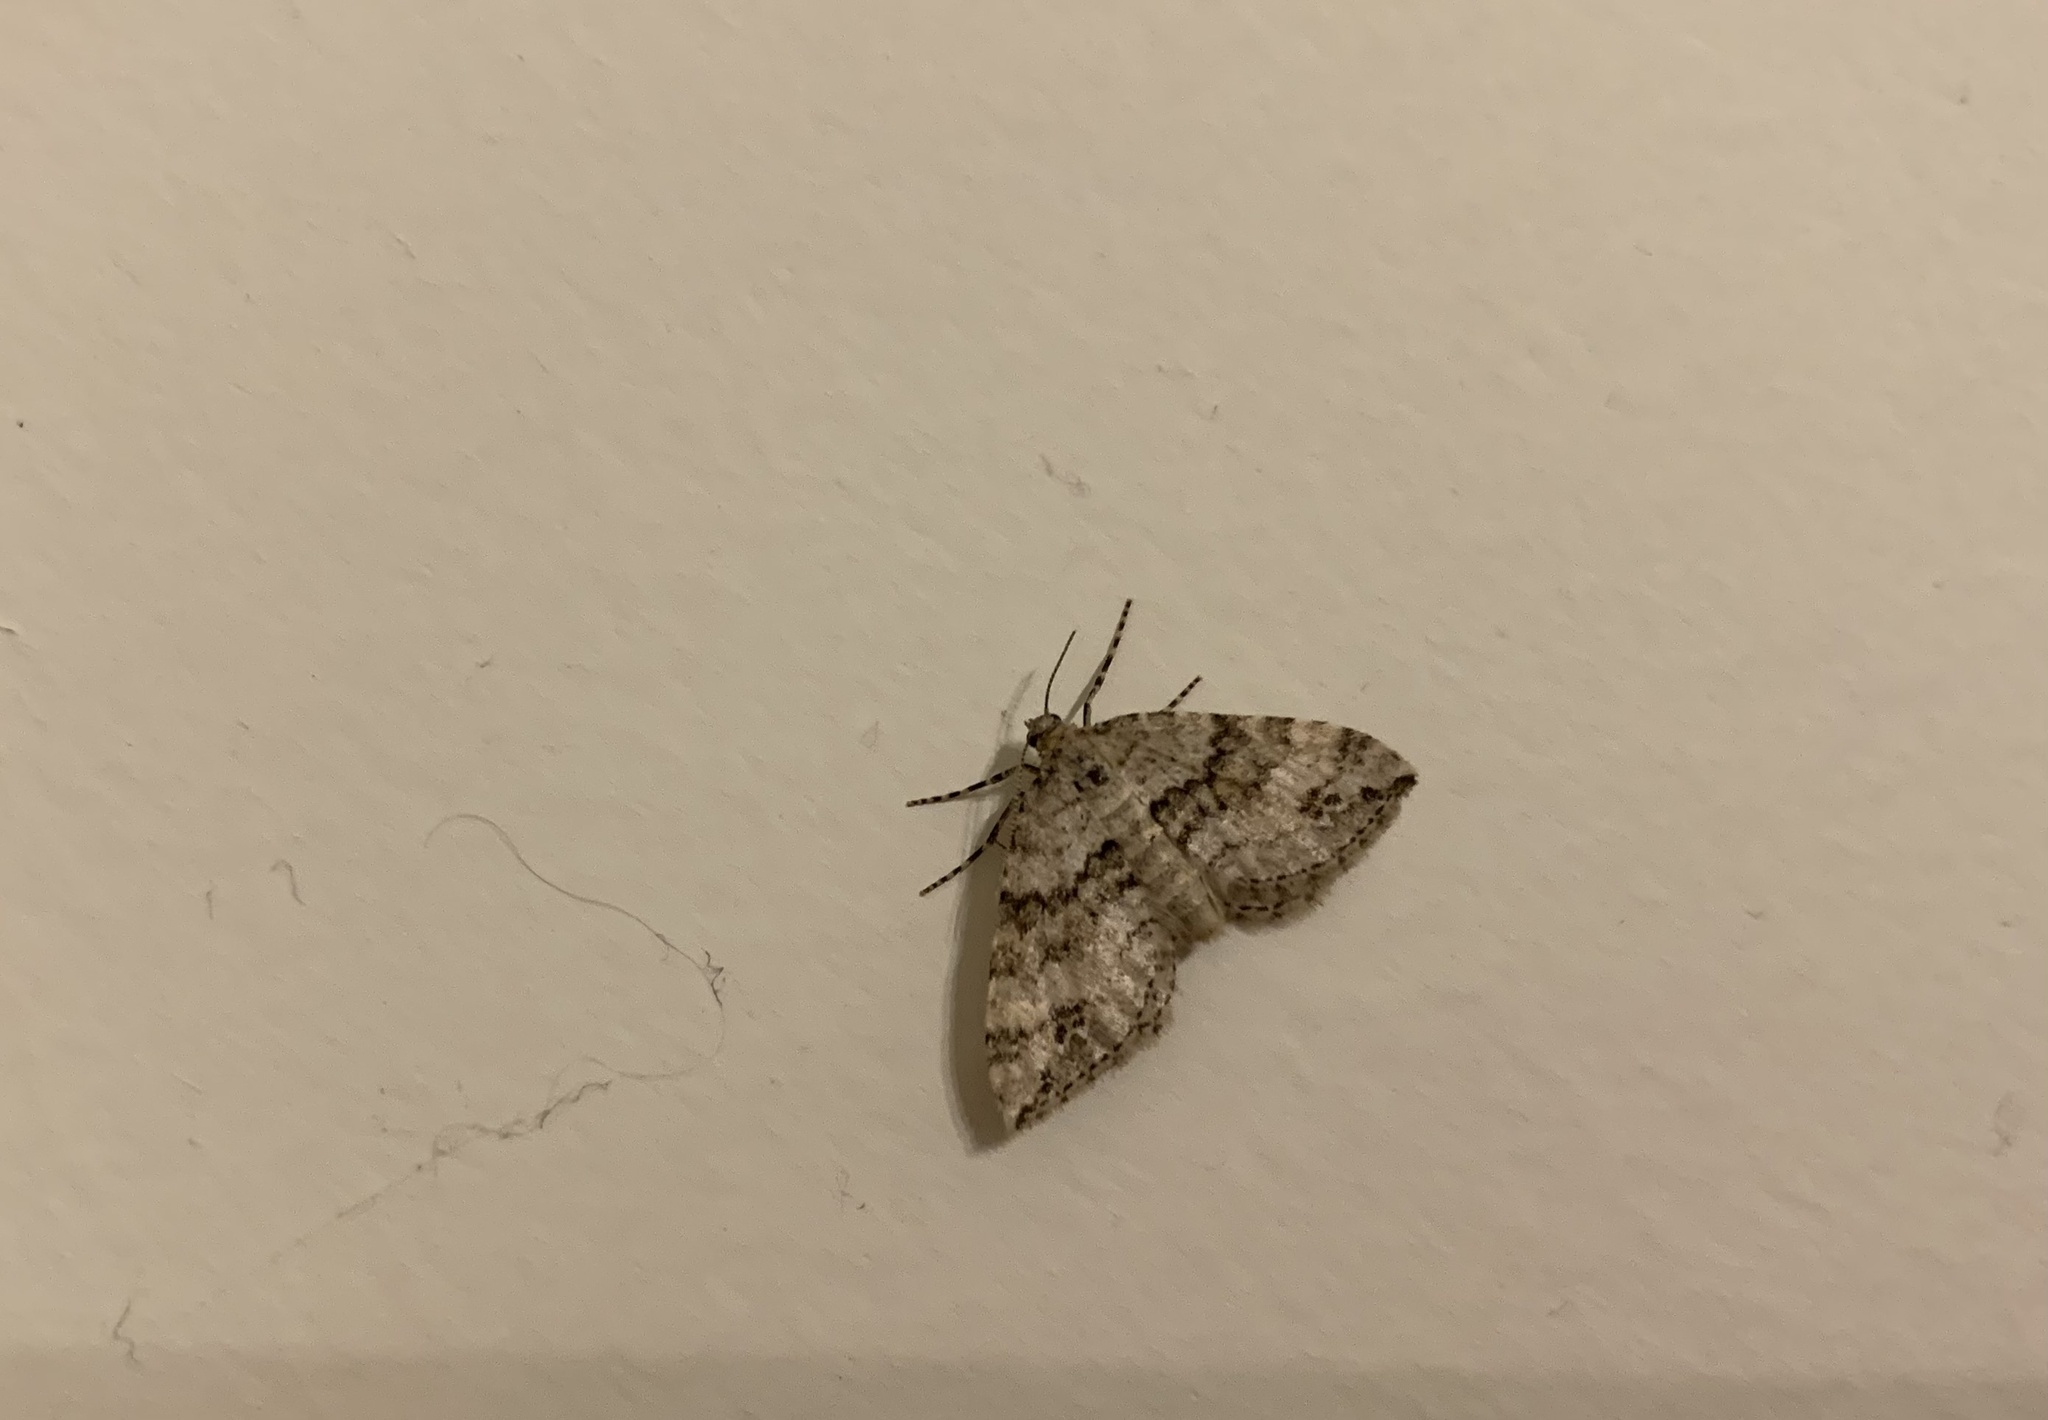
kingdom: Animalia
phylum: Arthropoda
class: Insecta
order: Lepidoptera
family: Geometridae
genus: Perizoma
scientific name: Perizoma didymata
